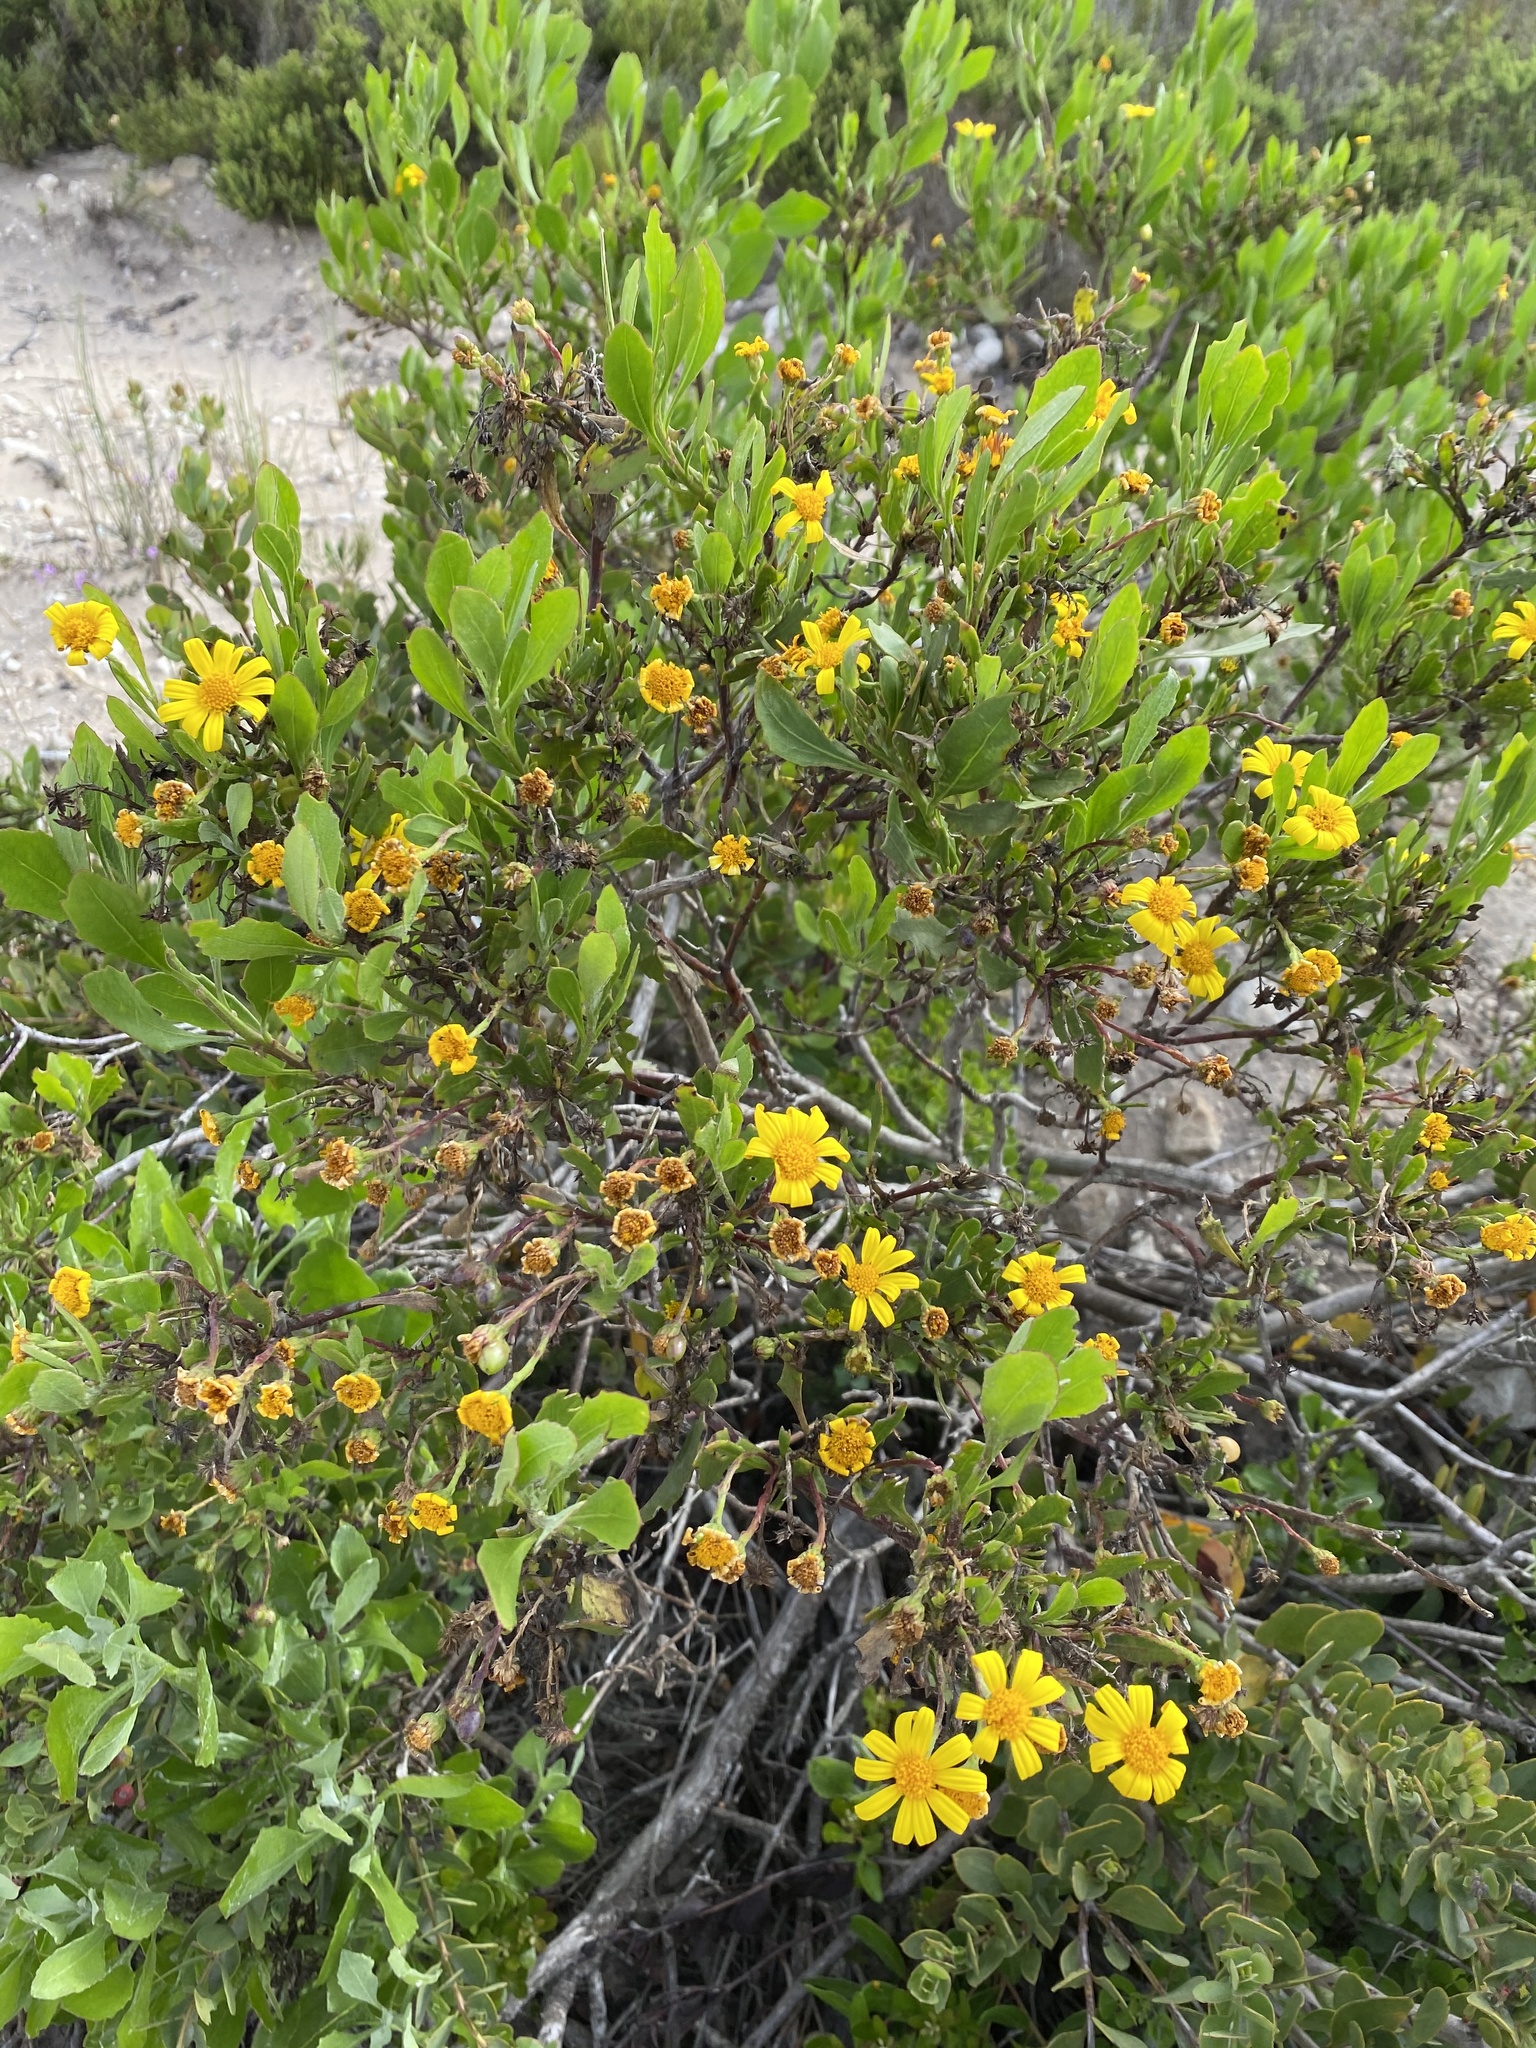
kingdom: Plantae
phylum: Tracheophyta
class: Magnoliopsida
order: Asterales
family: Asteraceae
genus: Osteospermum
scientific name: Osteospermum moniliferum
